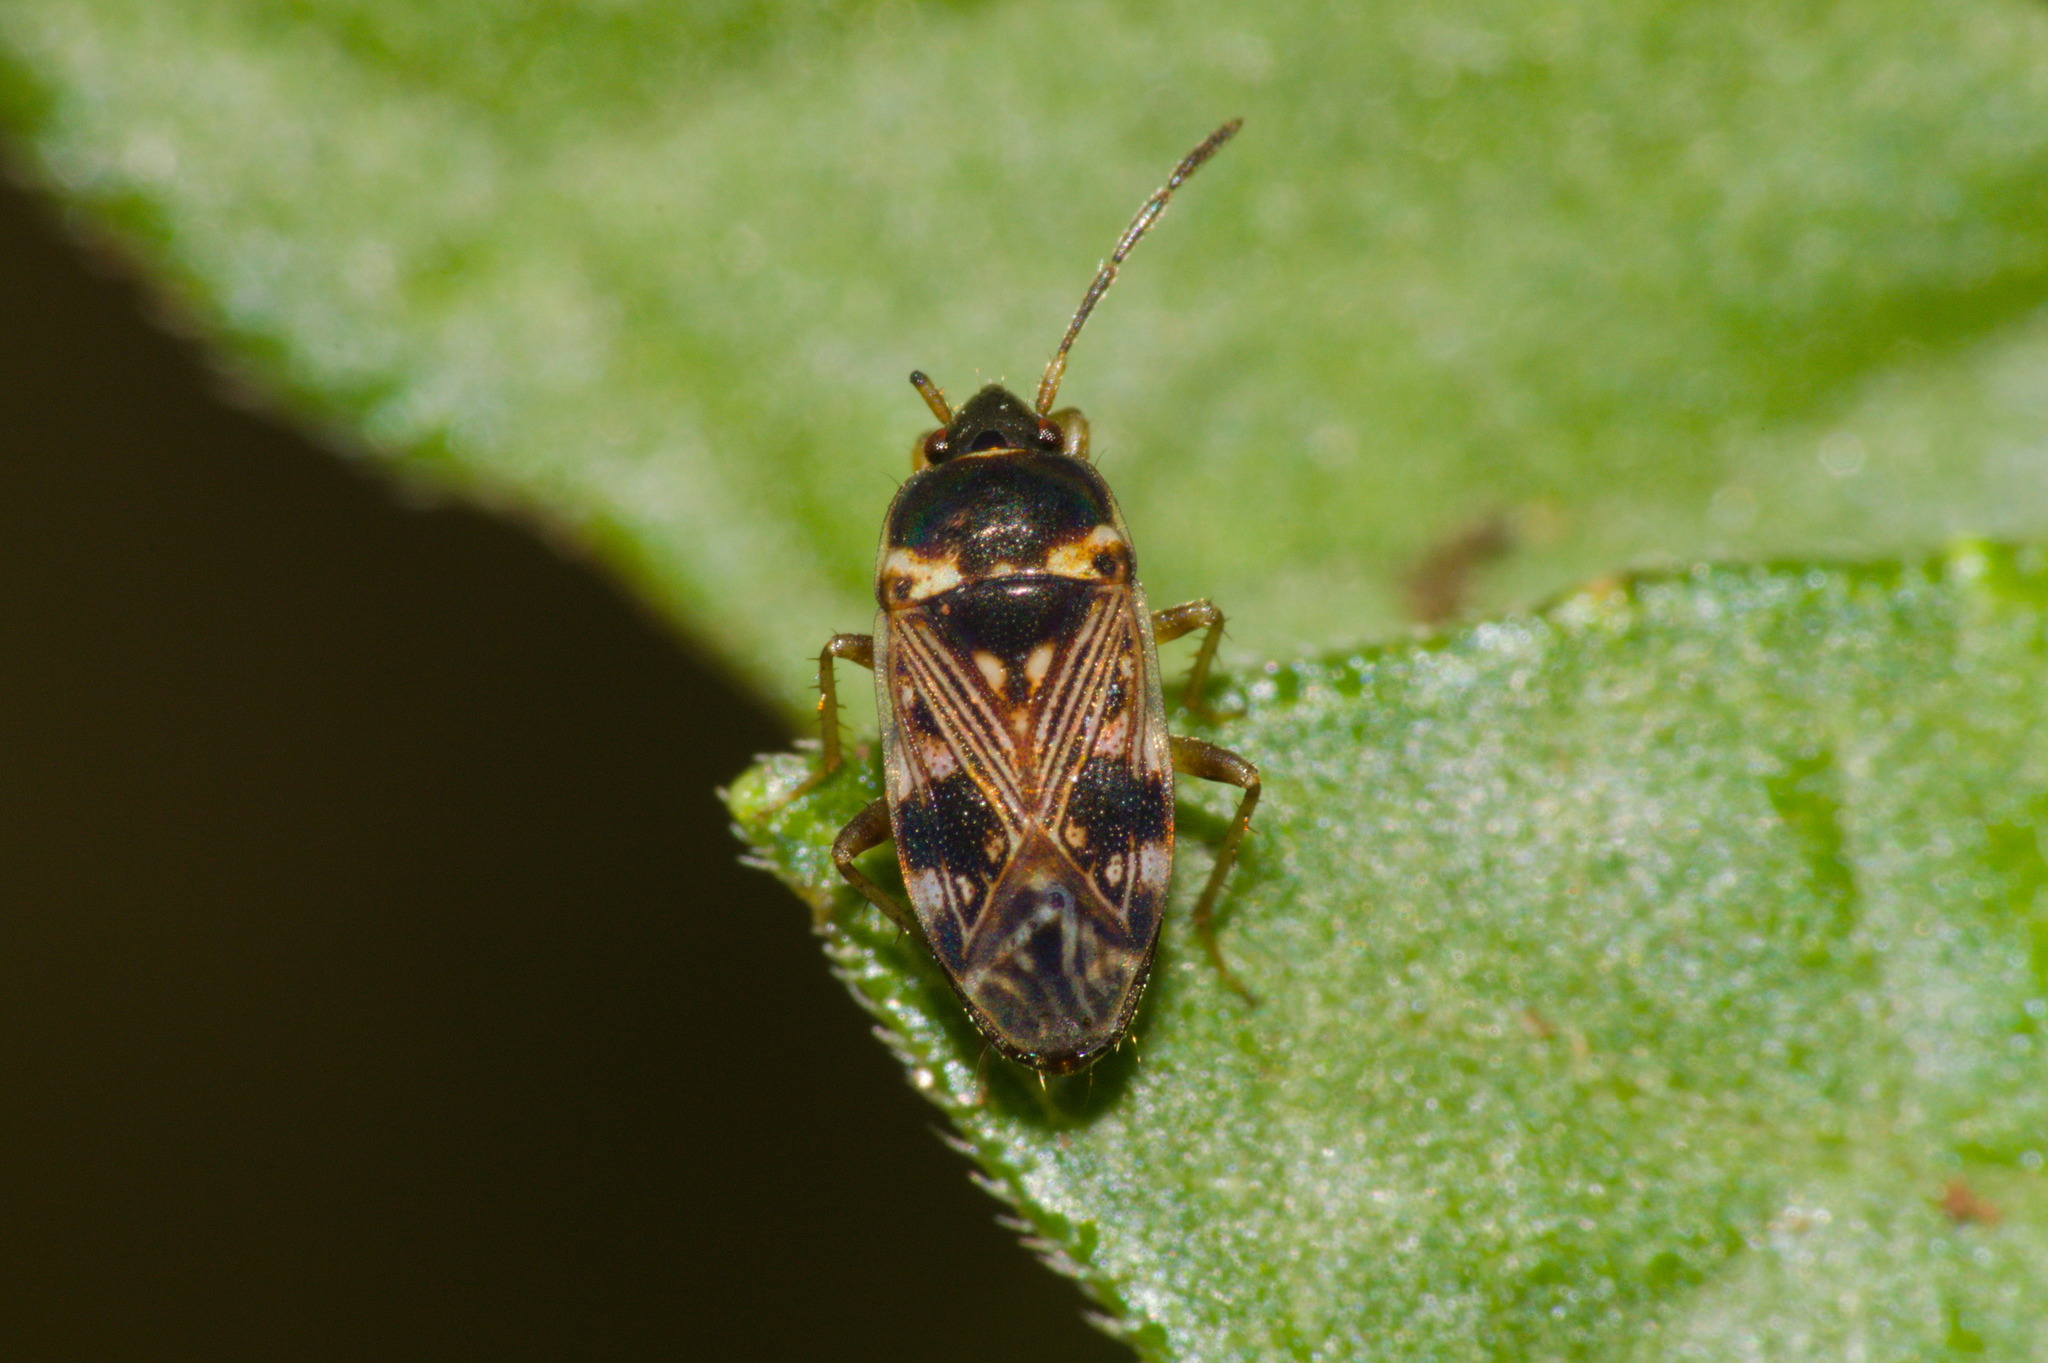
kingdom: Animalia
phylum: Arthropoda
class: Insecta
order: Hemiptera
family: Rhyparochromidae
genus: Cryphula
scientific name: Cryphula affinis
